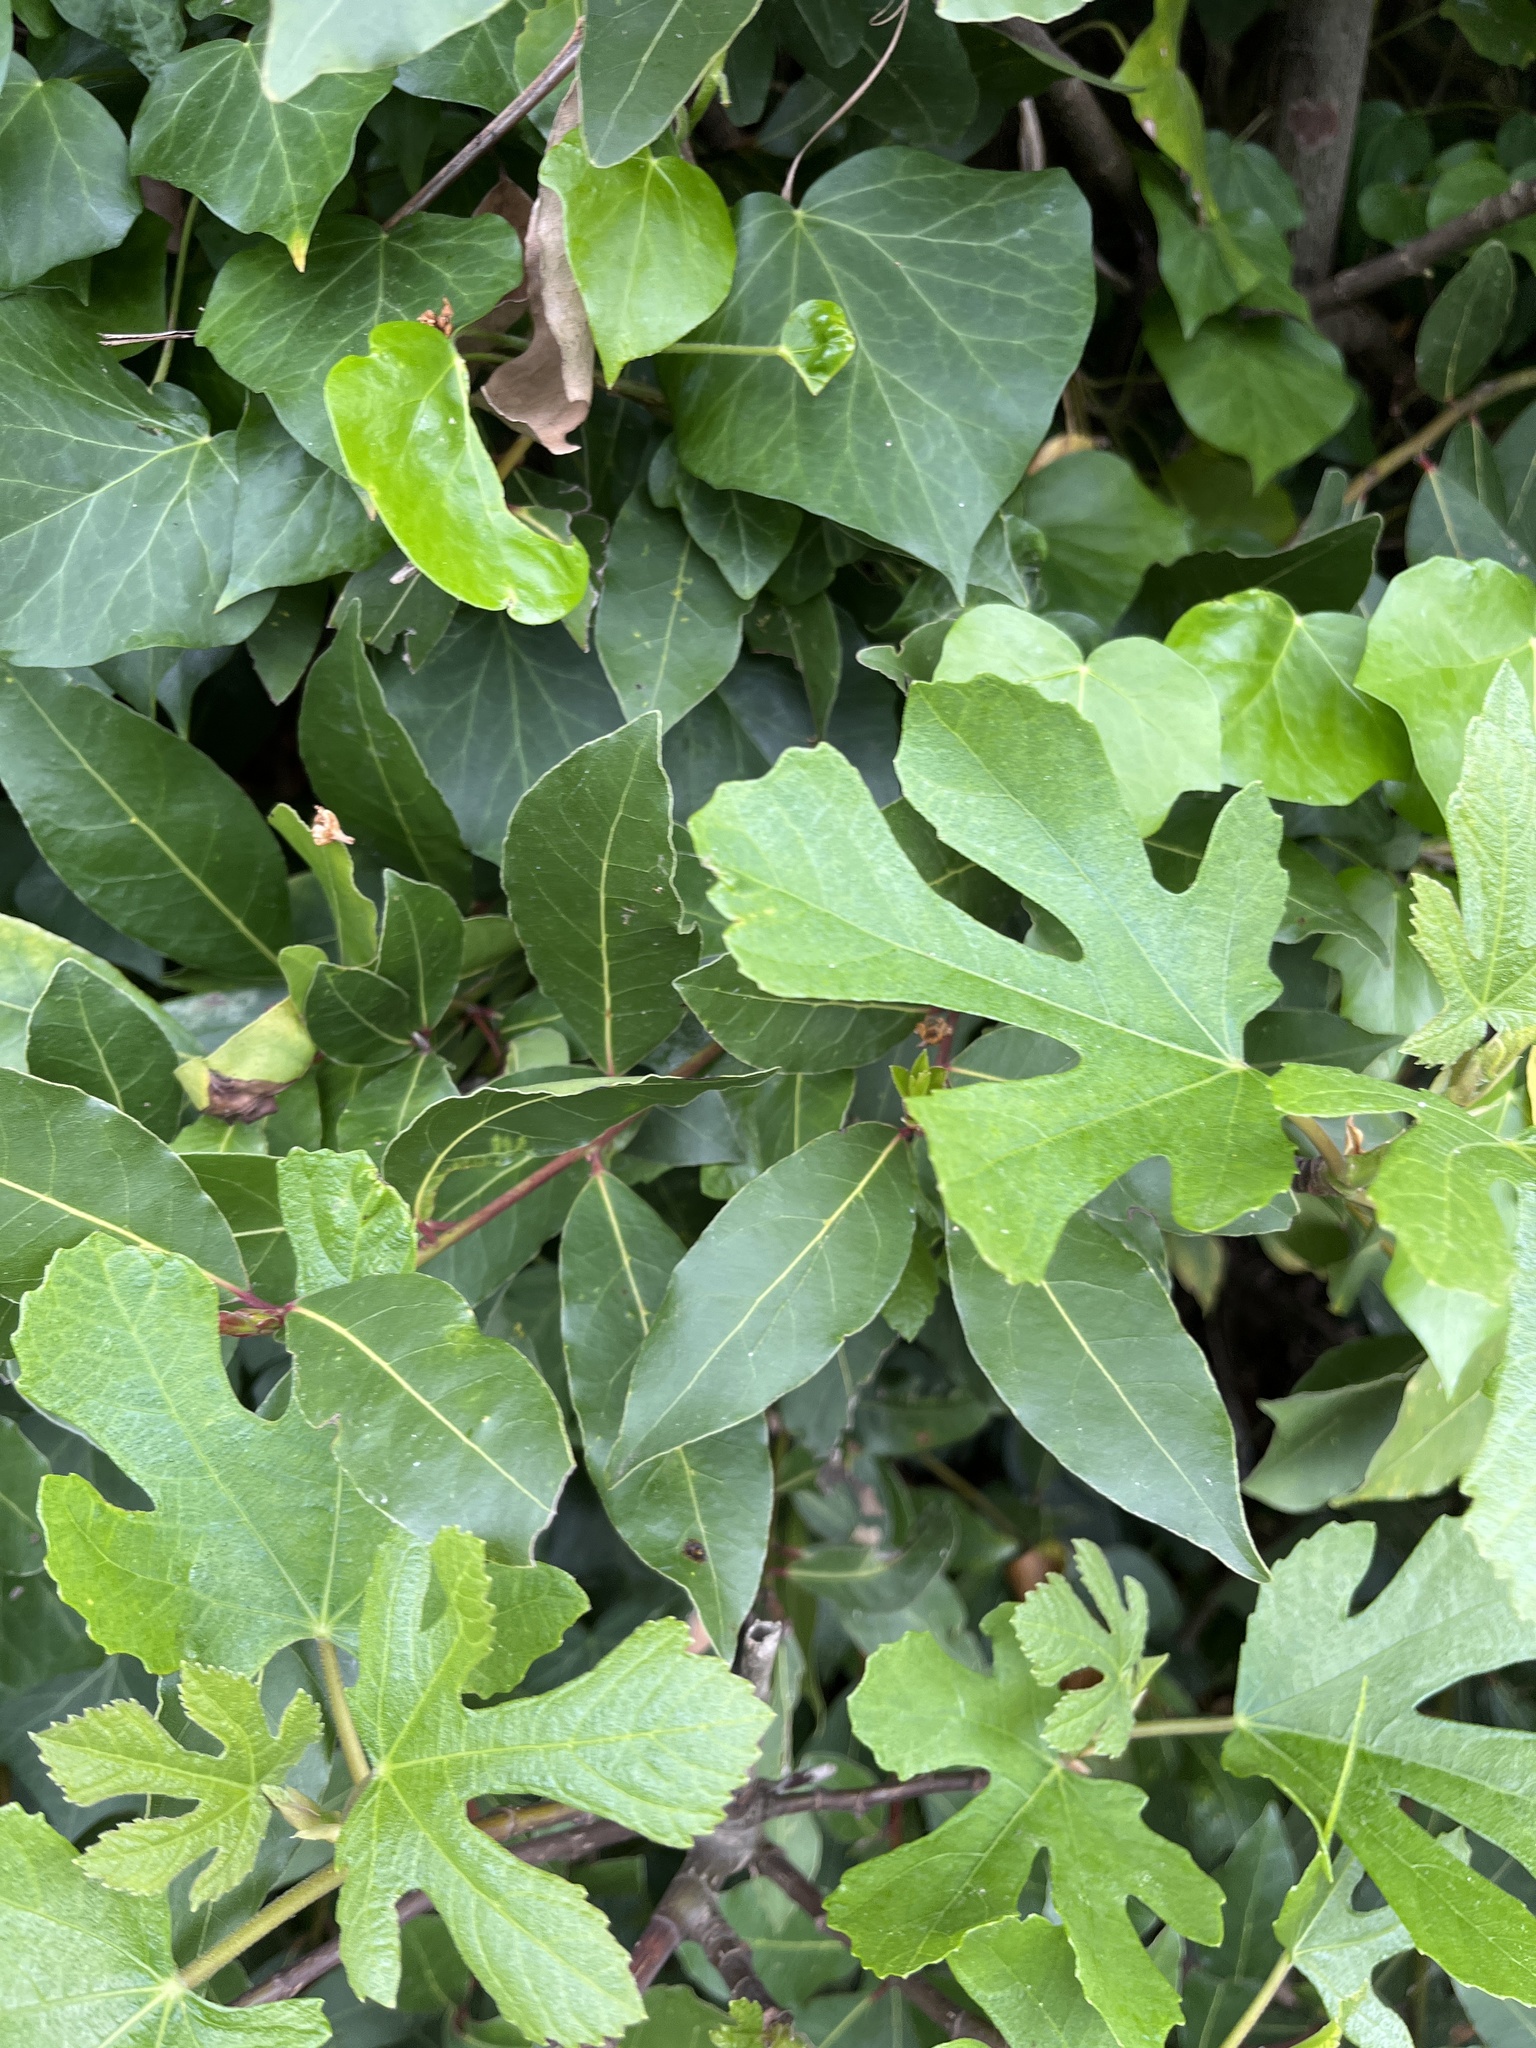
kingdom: Plantae
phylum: Tracheophyta
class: Magnoliopsida
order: Rosales
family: Moraceae
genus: Ficus
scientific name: Ficus carica
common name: Fig
